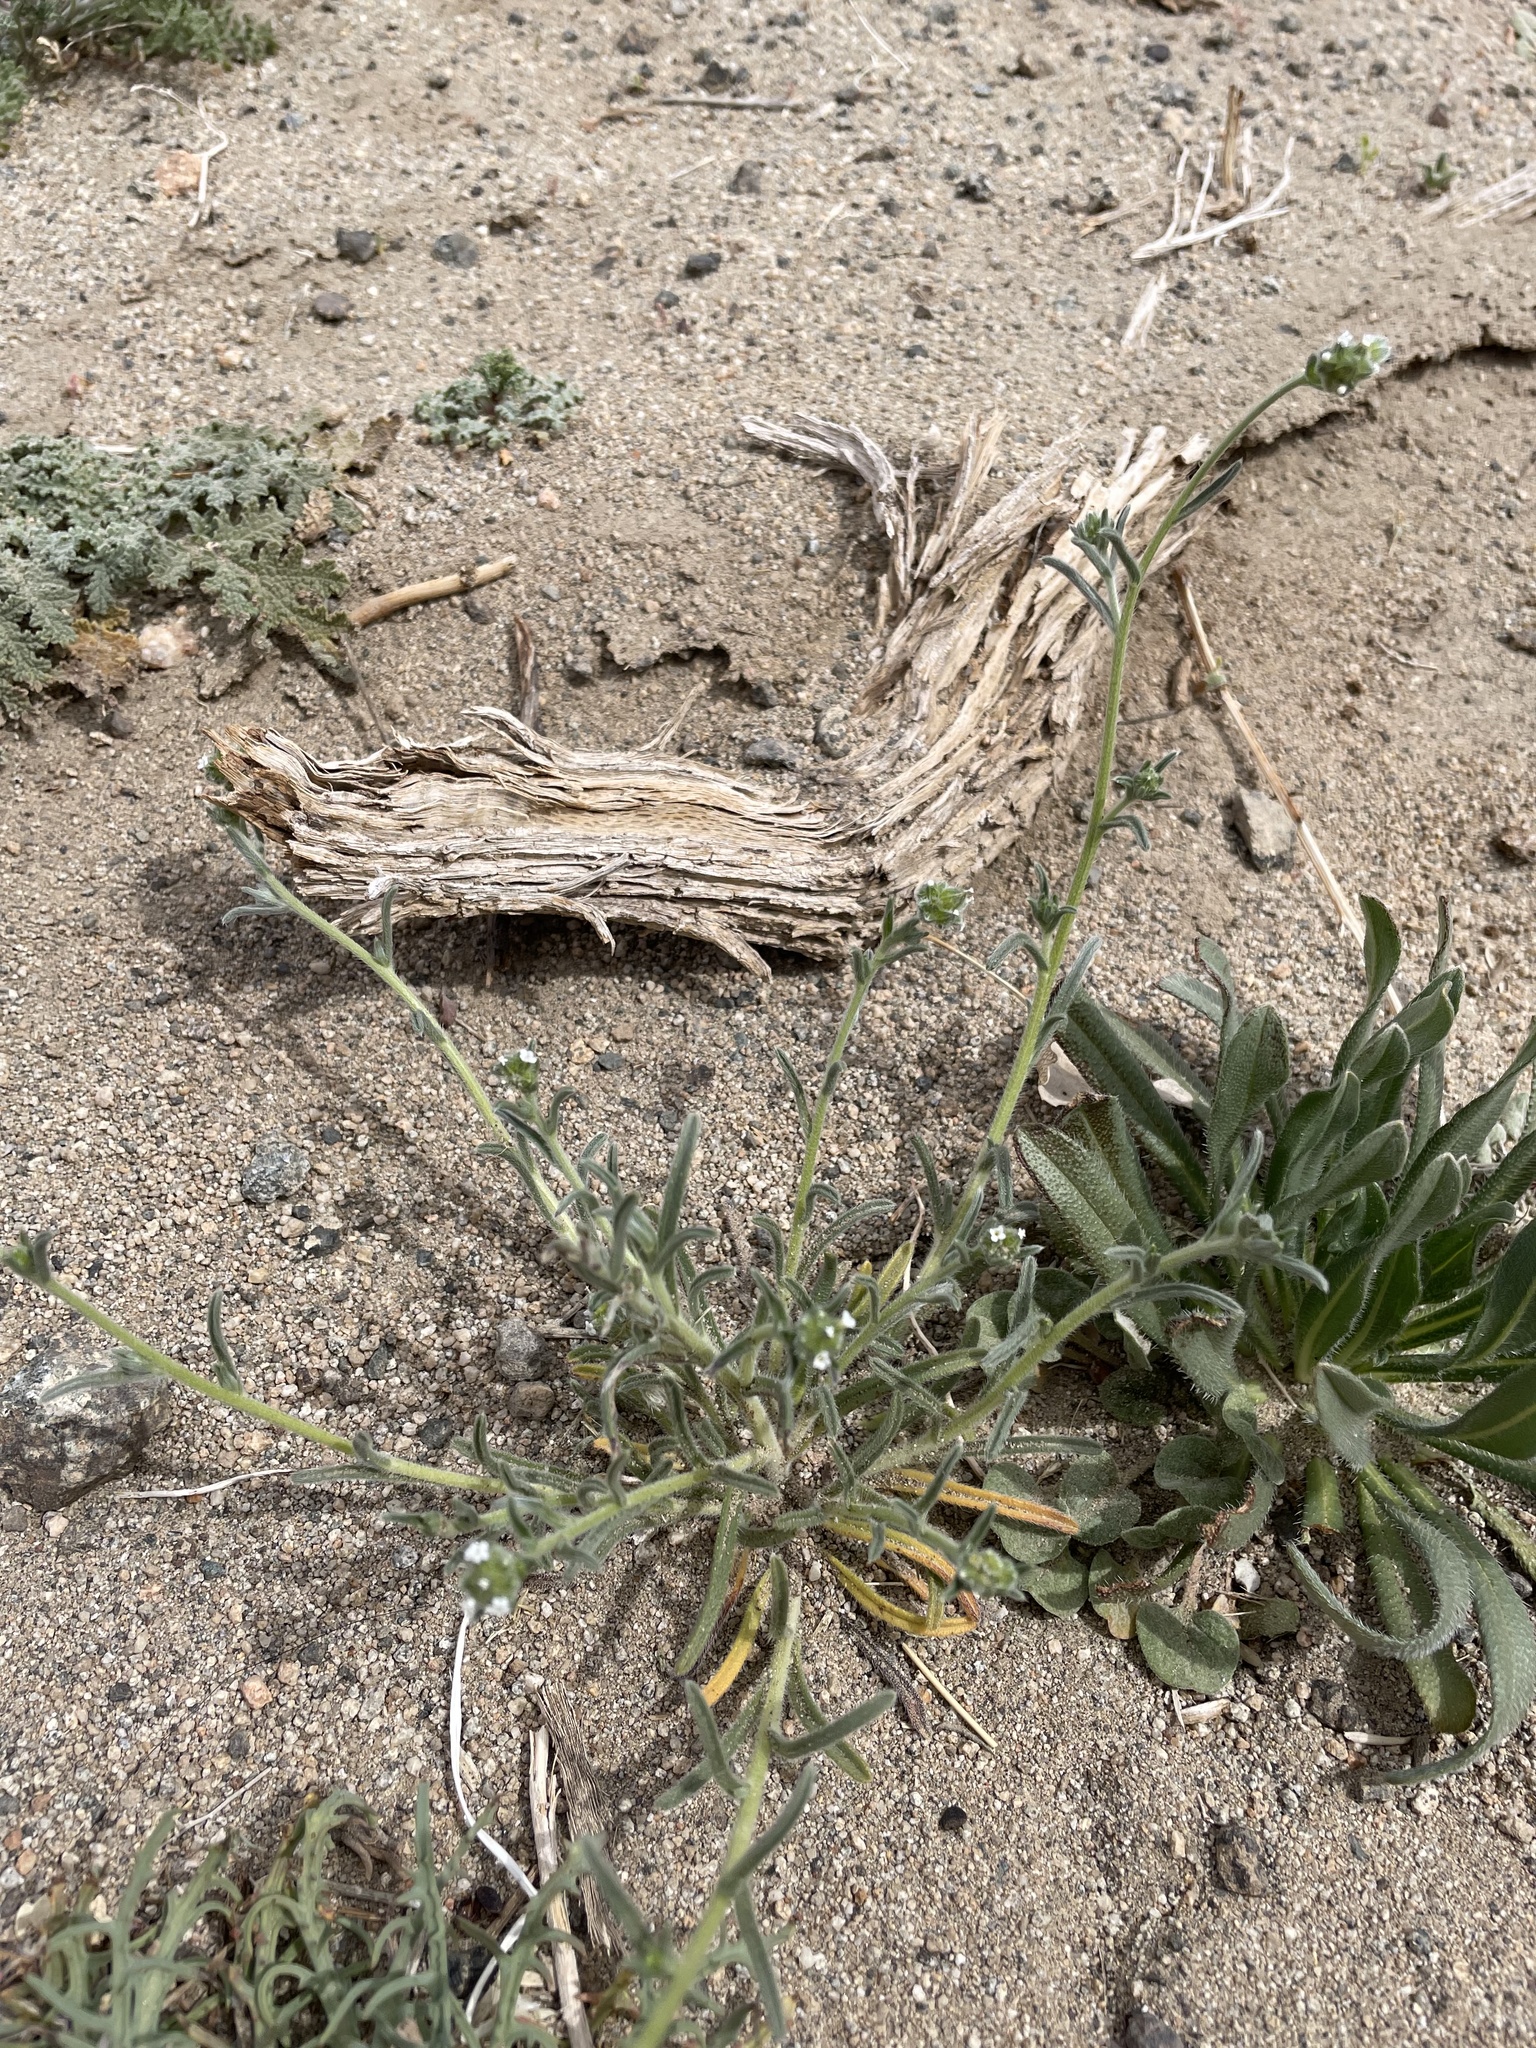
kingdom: Plantae
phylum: Tracheophyta
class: Magnoliopsida
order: Boraginales
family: Boraginaceae
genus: Cryptantha
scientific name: Cryptantha pterocarya
